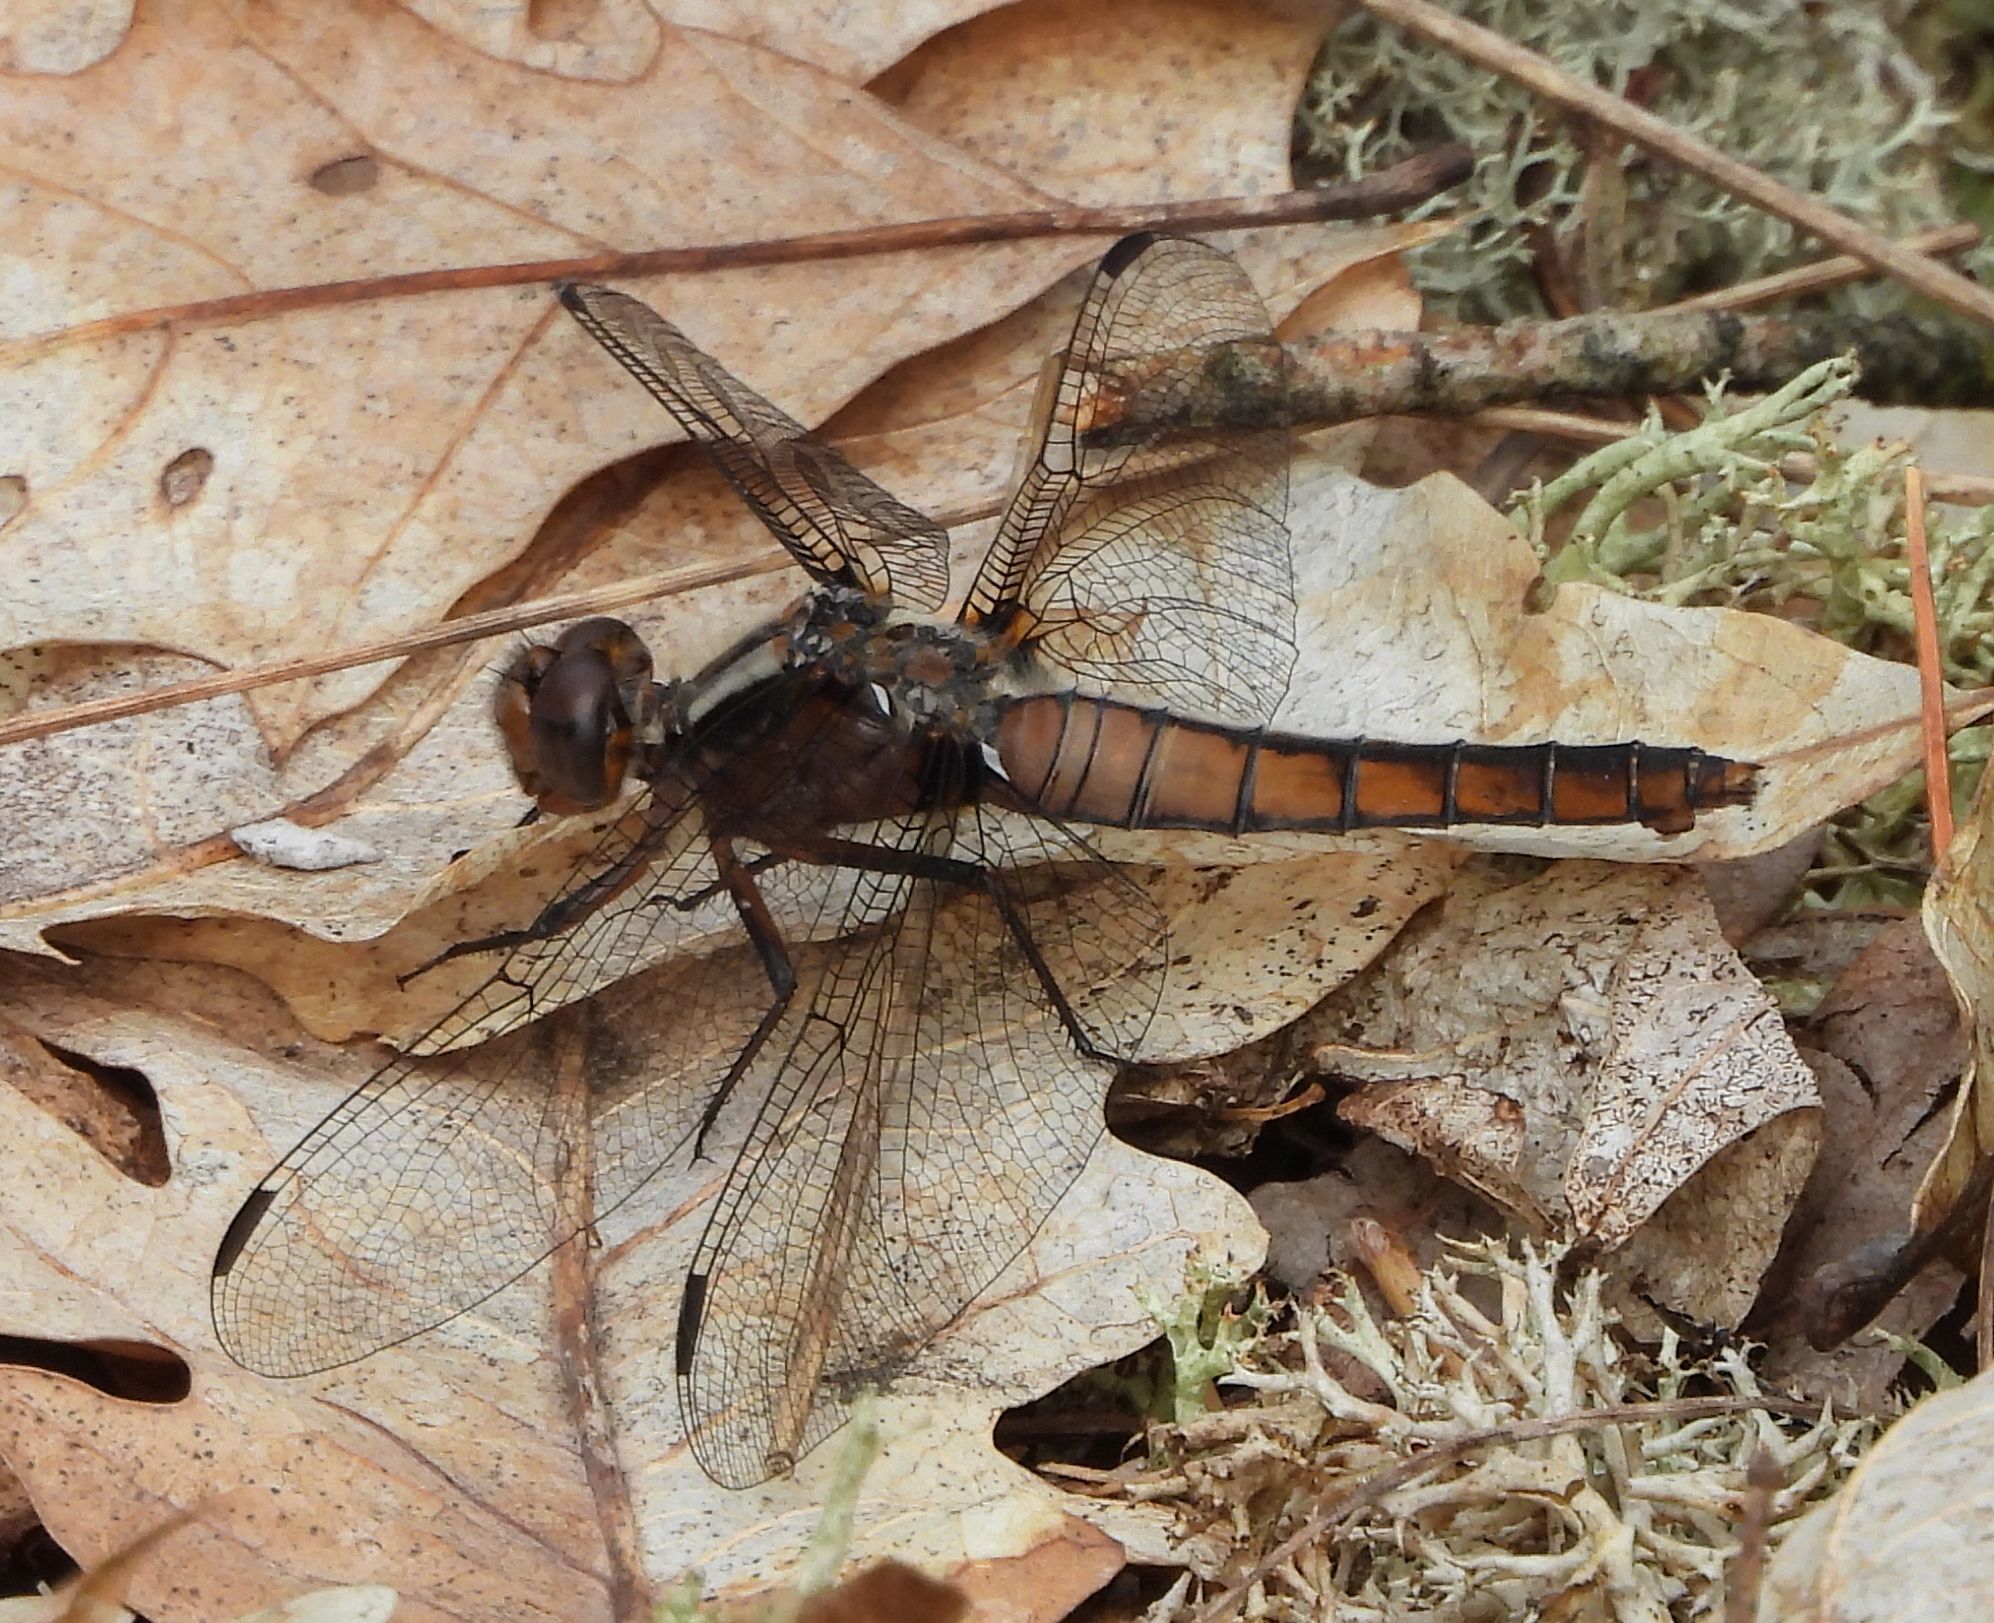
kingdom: Animalia
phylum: Arthropoda
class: Insecta
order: Odonata
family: Libellulidae
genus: Ladona
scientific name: Ladona julia
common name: Chalk-fronted corporal
